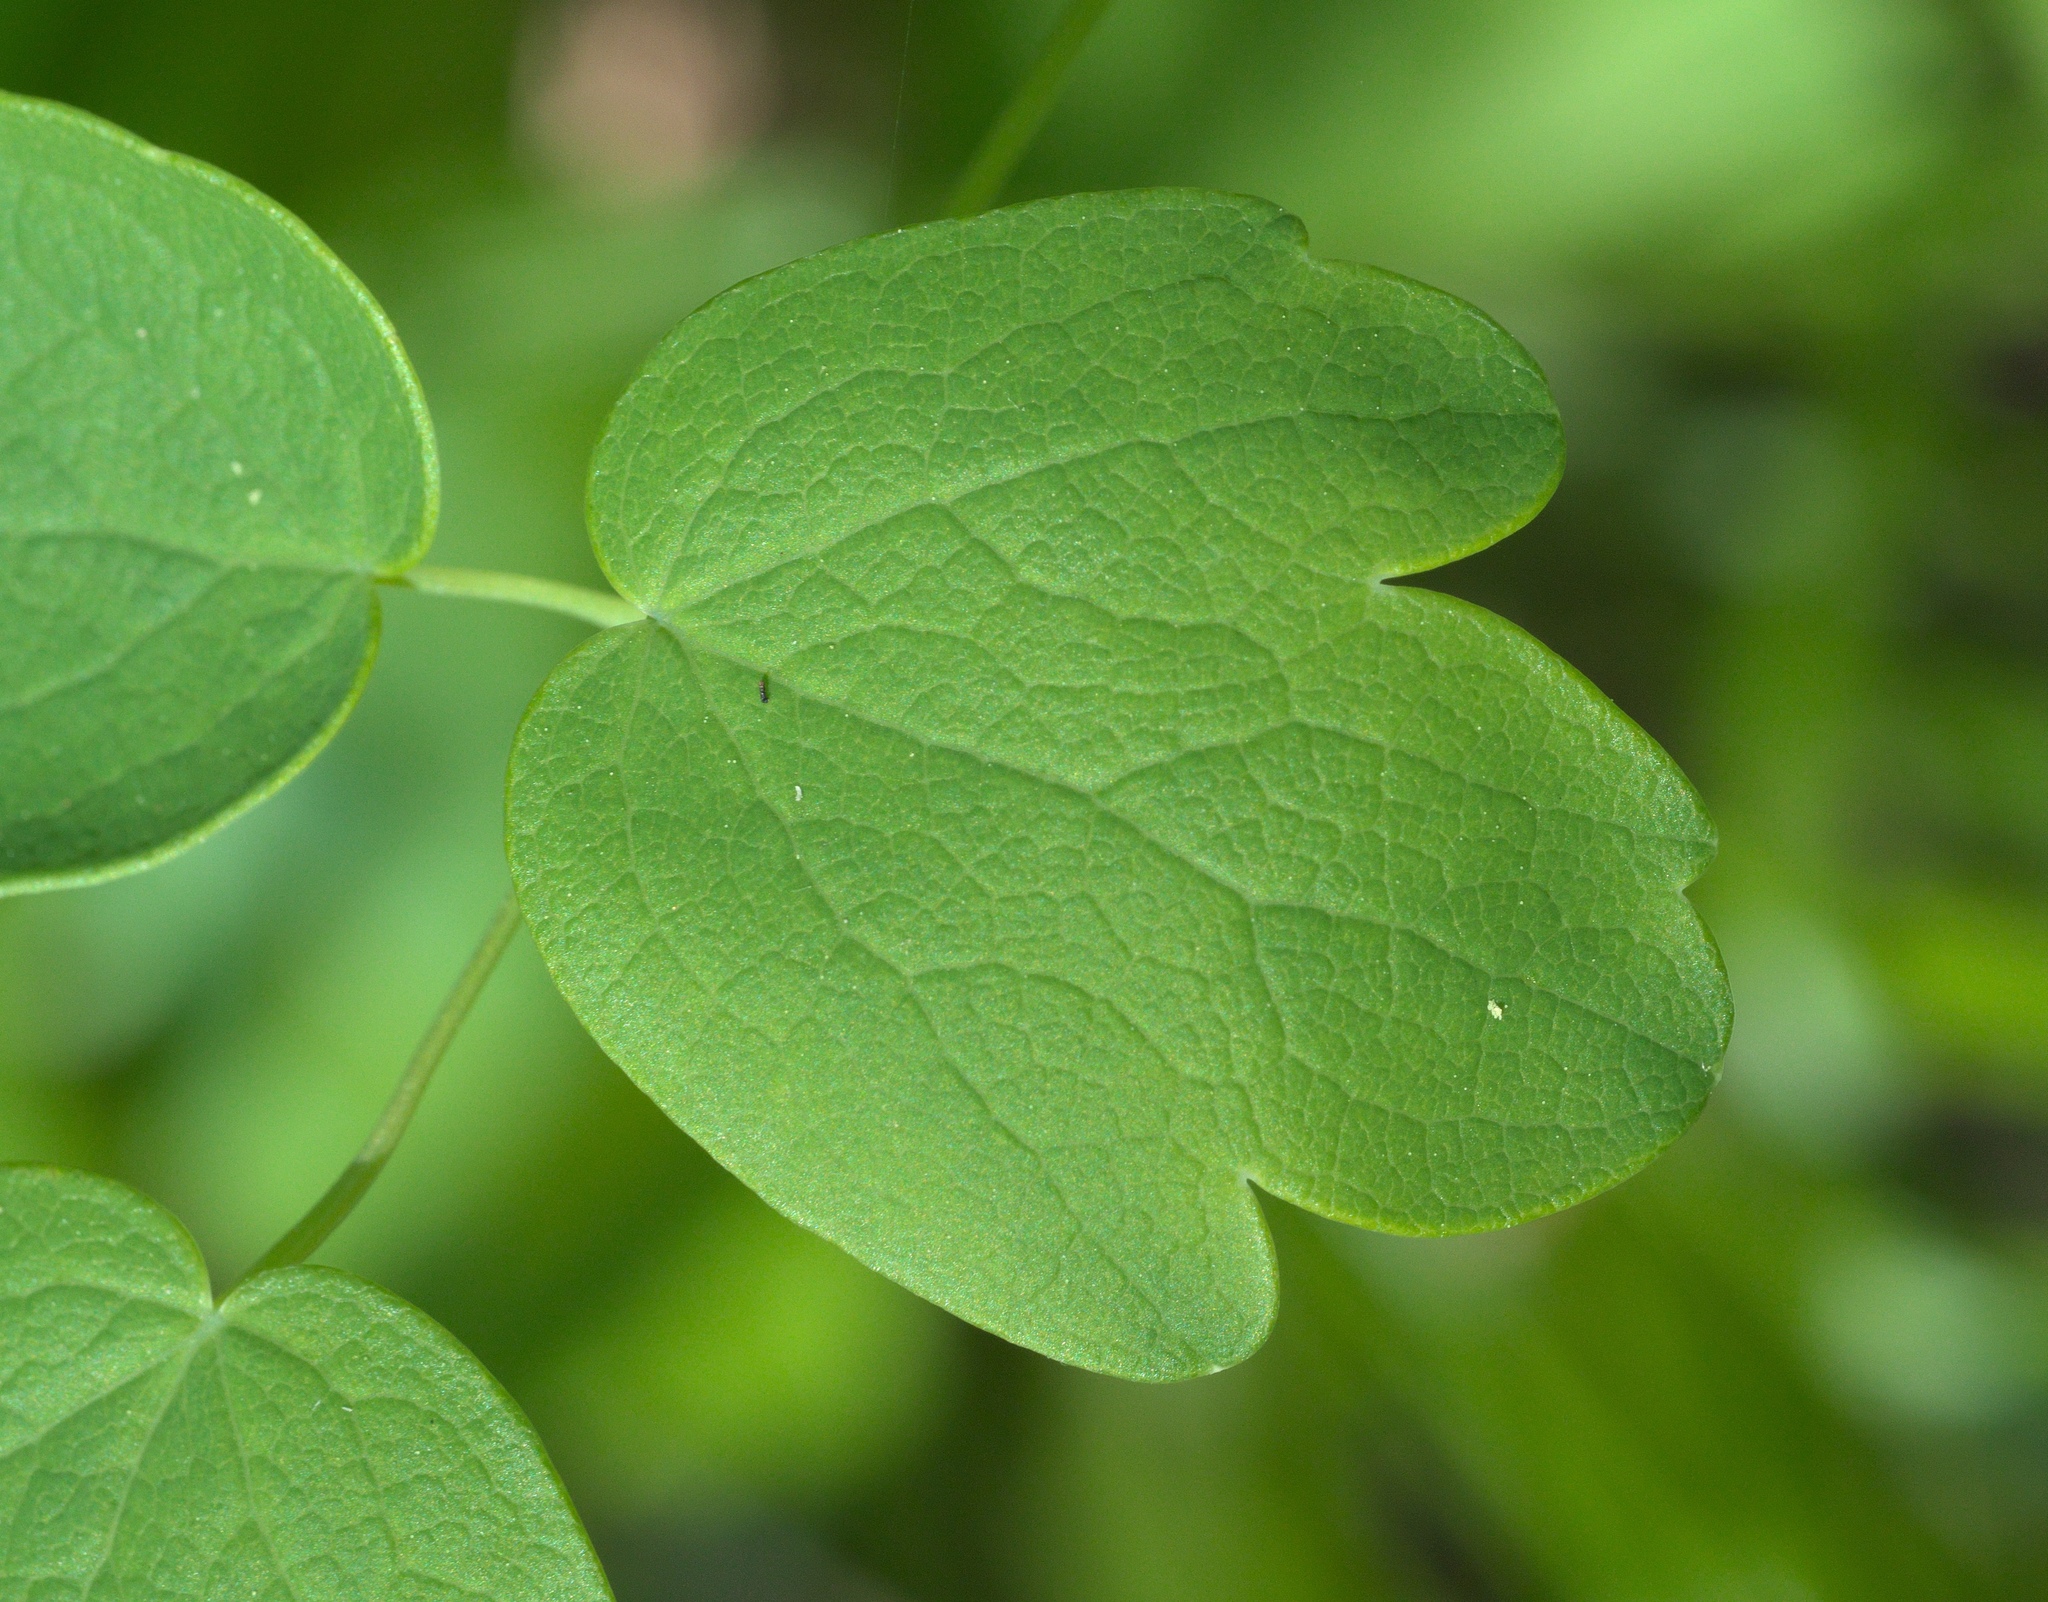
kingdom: Plantae
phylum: Tracheophyta
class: Magnoliopsida
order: Ranunculales
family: Ranunculaceae
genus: Thalictrum
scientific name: Thalictrum dasycarpum
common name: Purple meadow-rue
